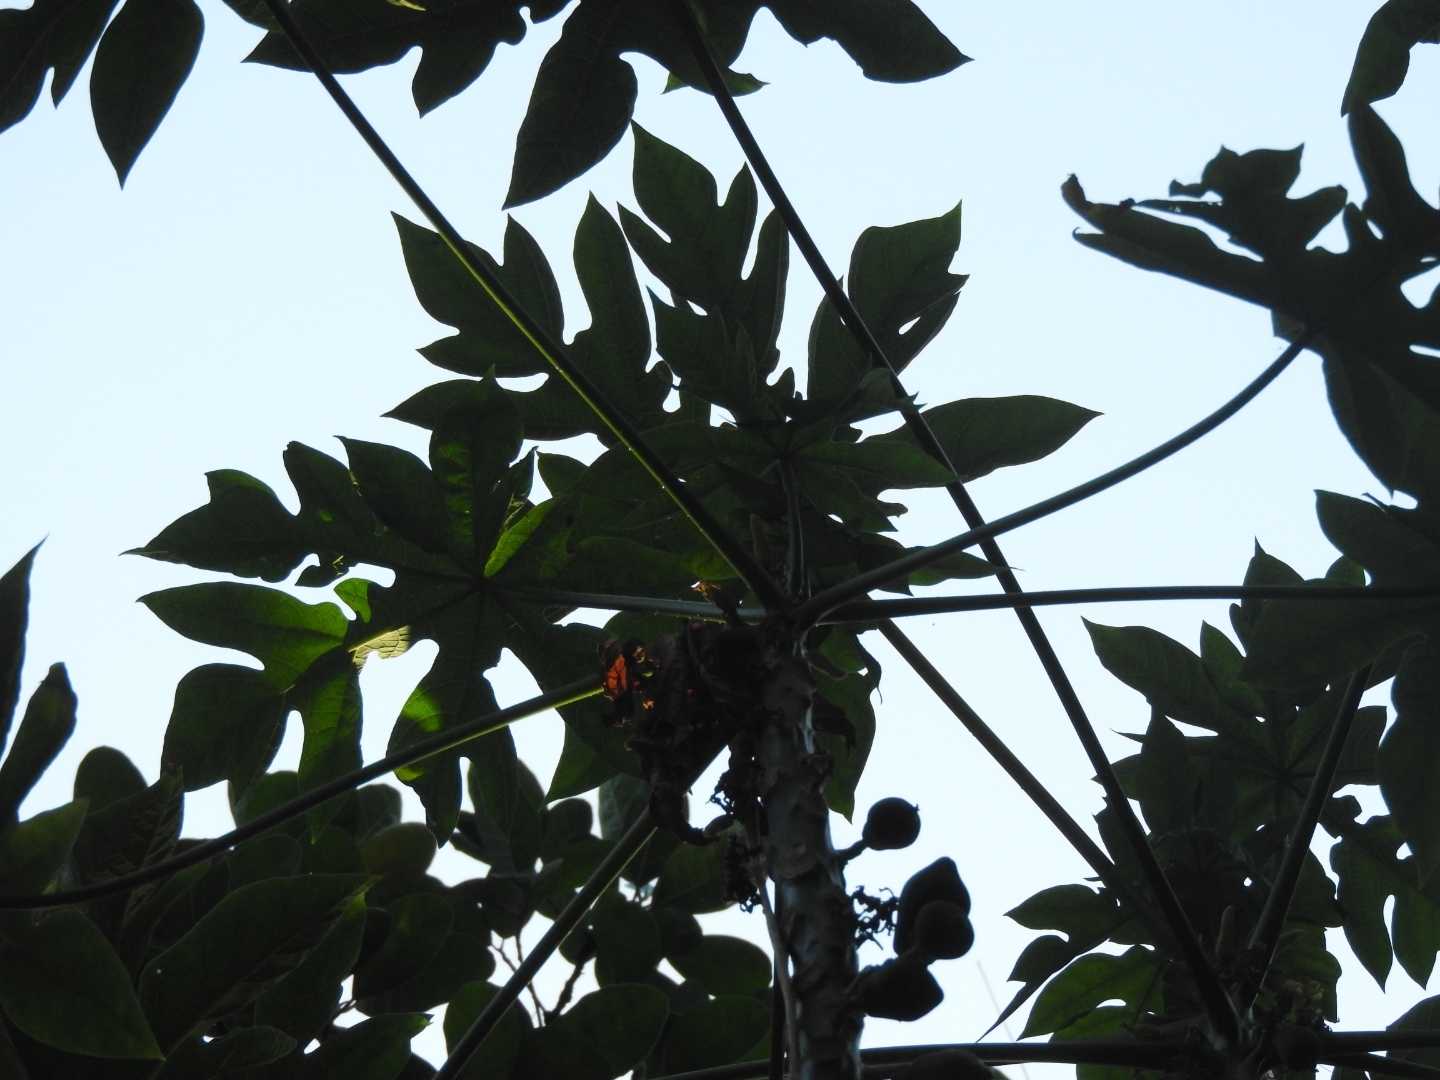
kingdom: Plantae
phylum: Tracheophyta
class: Magnoliopsida
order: Brassicales
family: Caricaceae
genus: Carica
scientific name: Carica papaya
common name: Papaya
